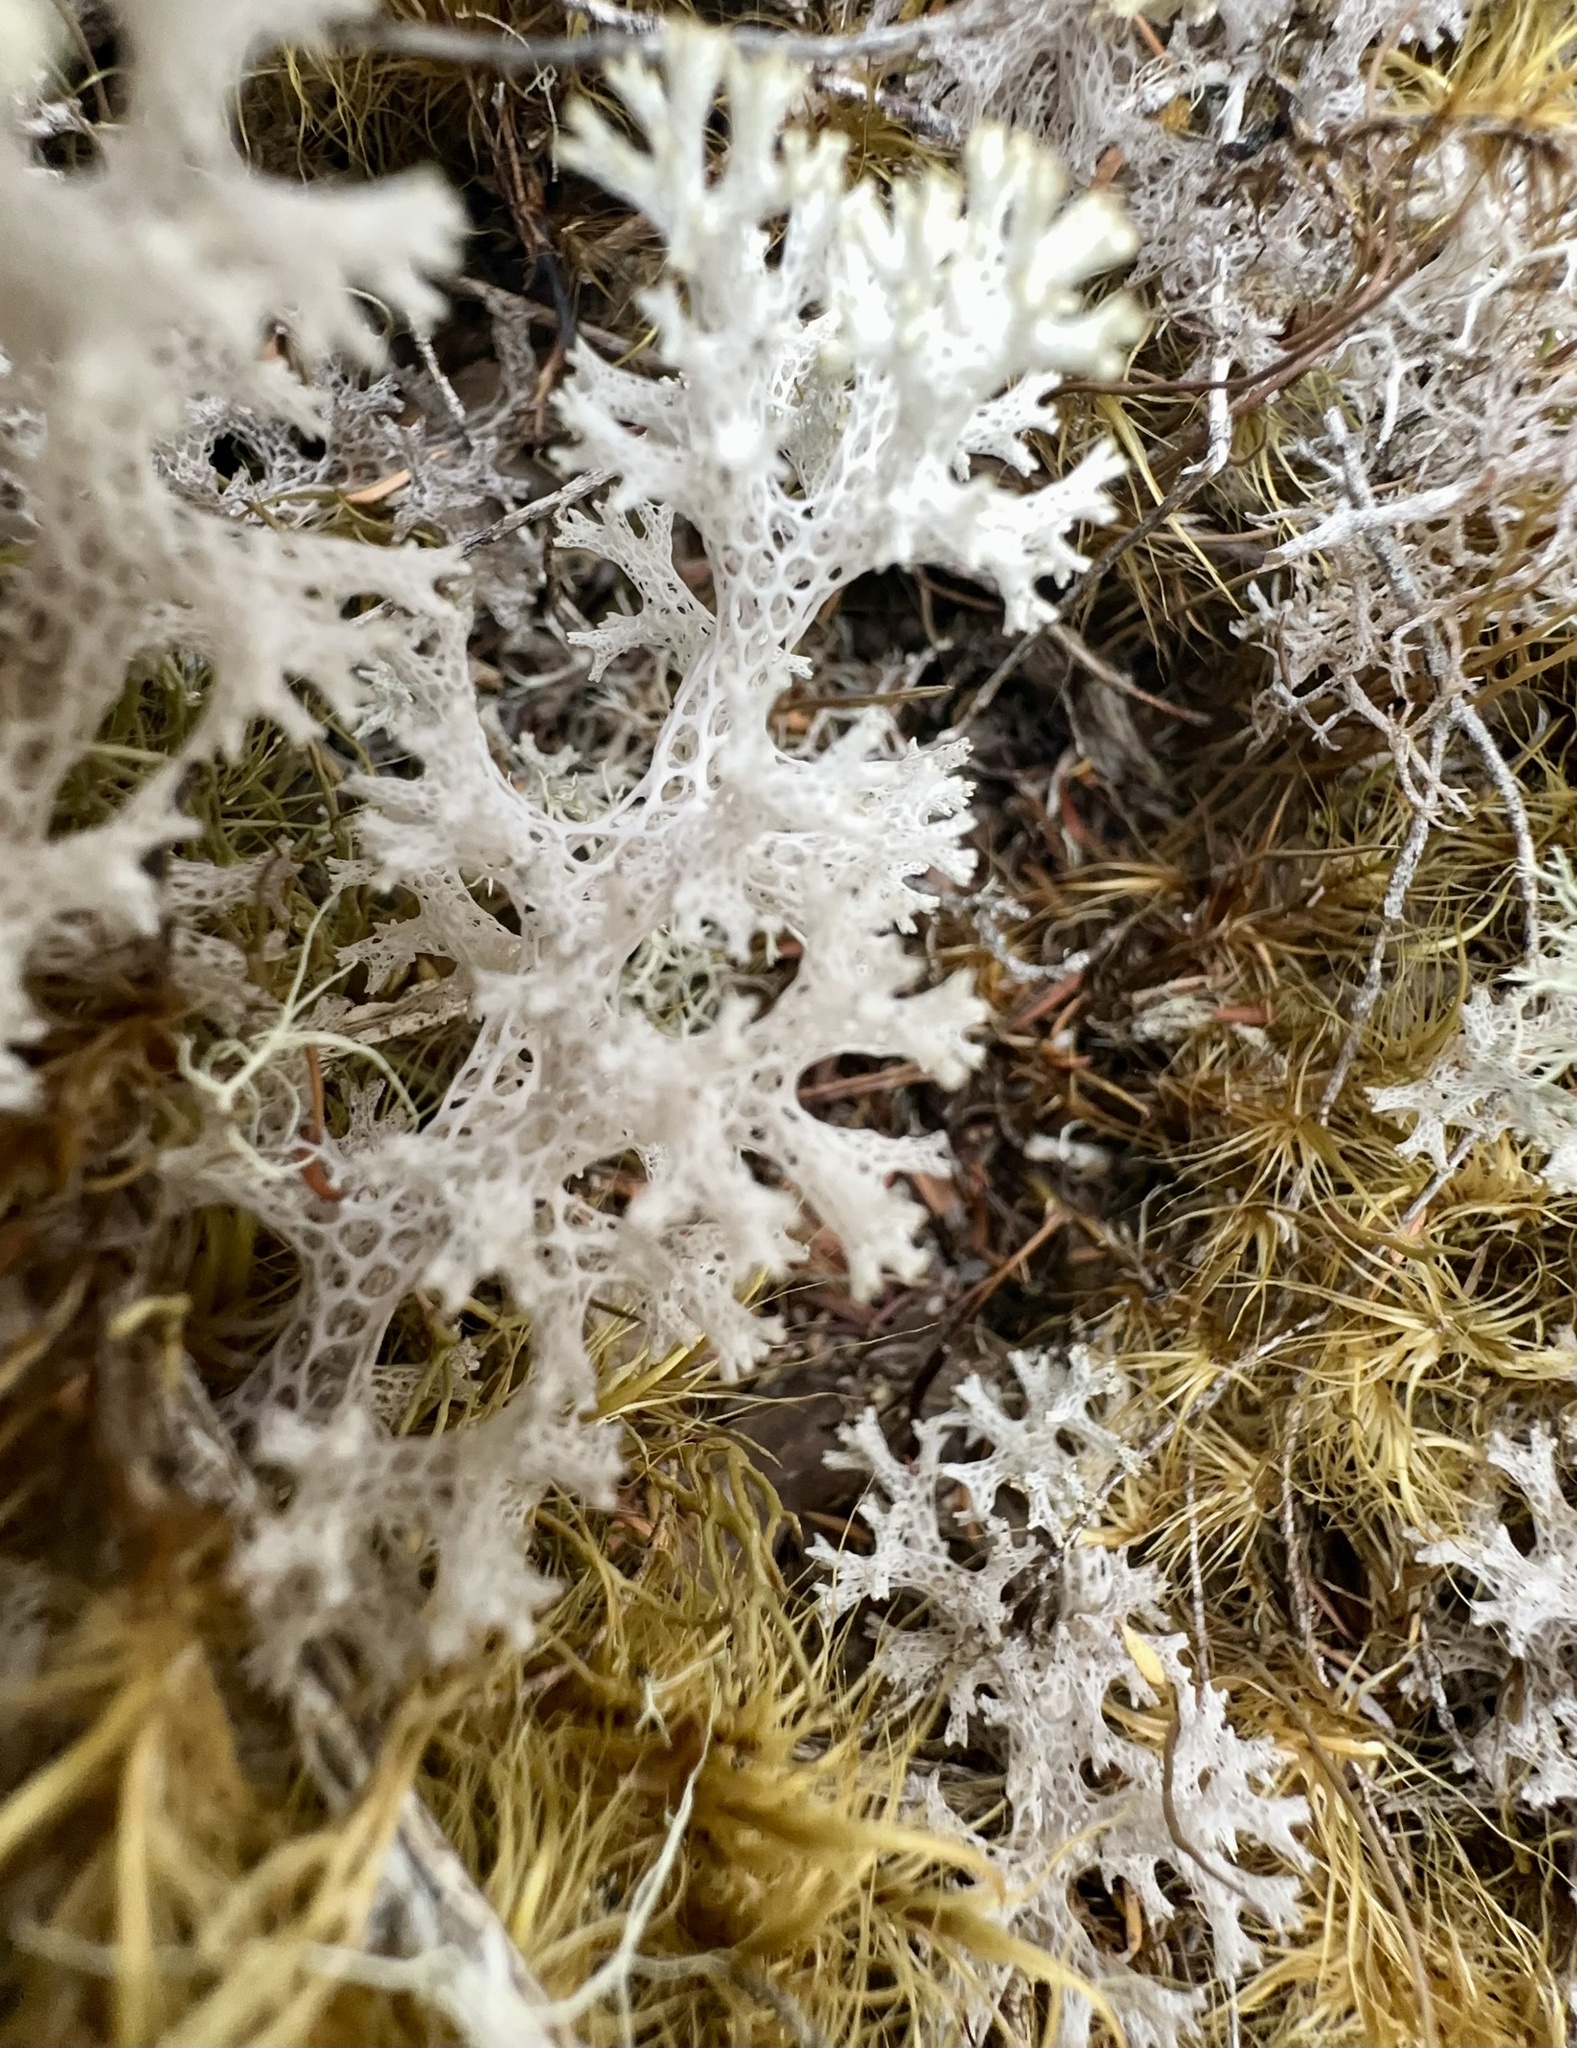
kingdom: Fungi
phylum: Ascomycota
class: Lecanoromycetes
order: Lecanorales
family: Cladoniaceae
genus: Pulchrocladia
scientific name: Pulchrocladia retipora
